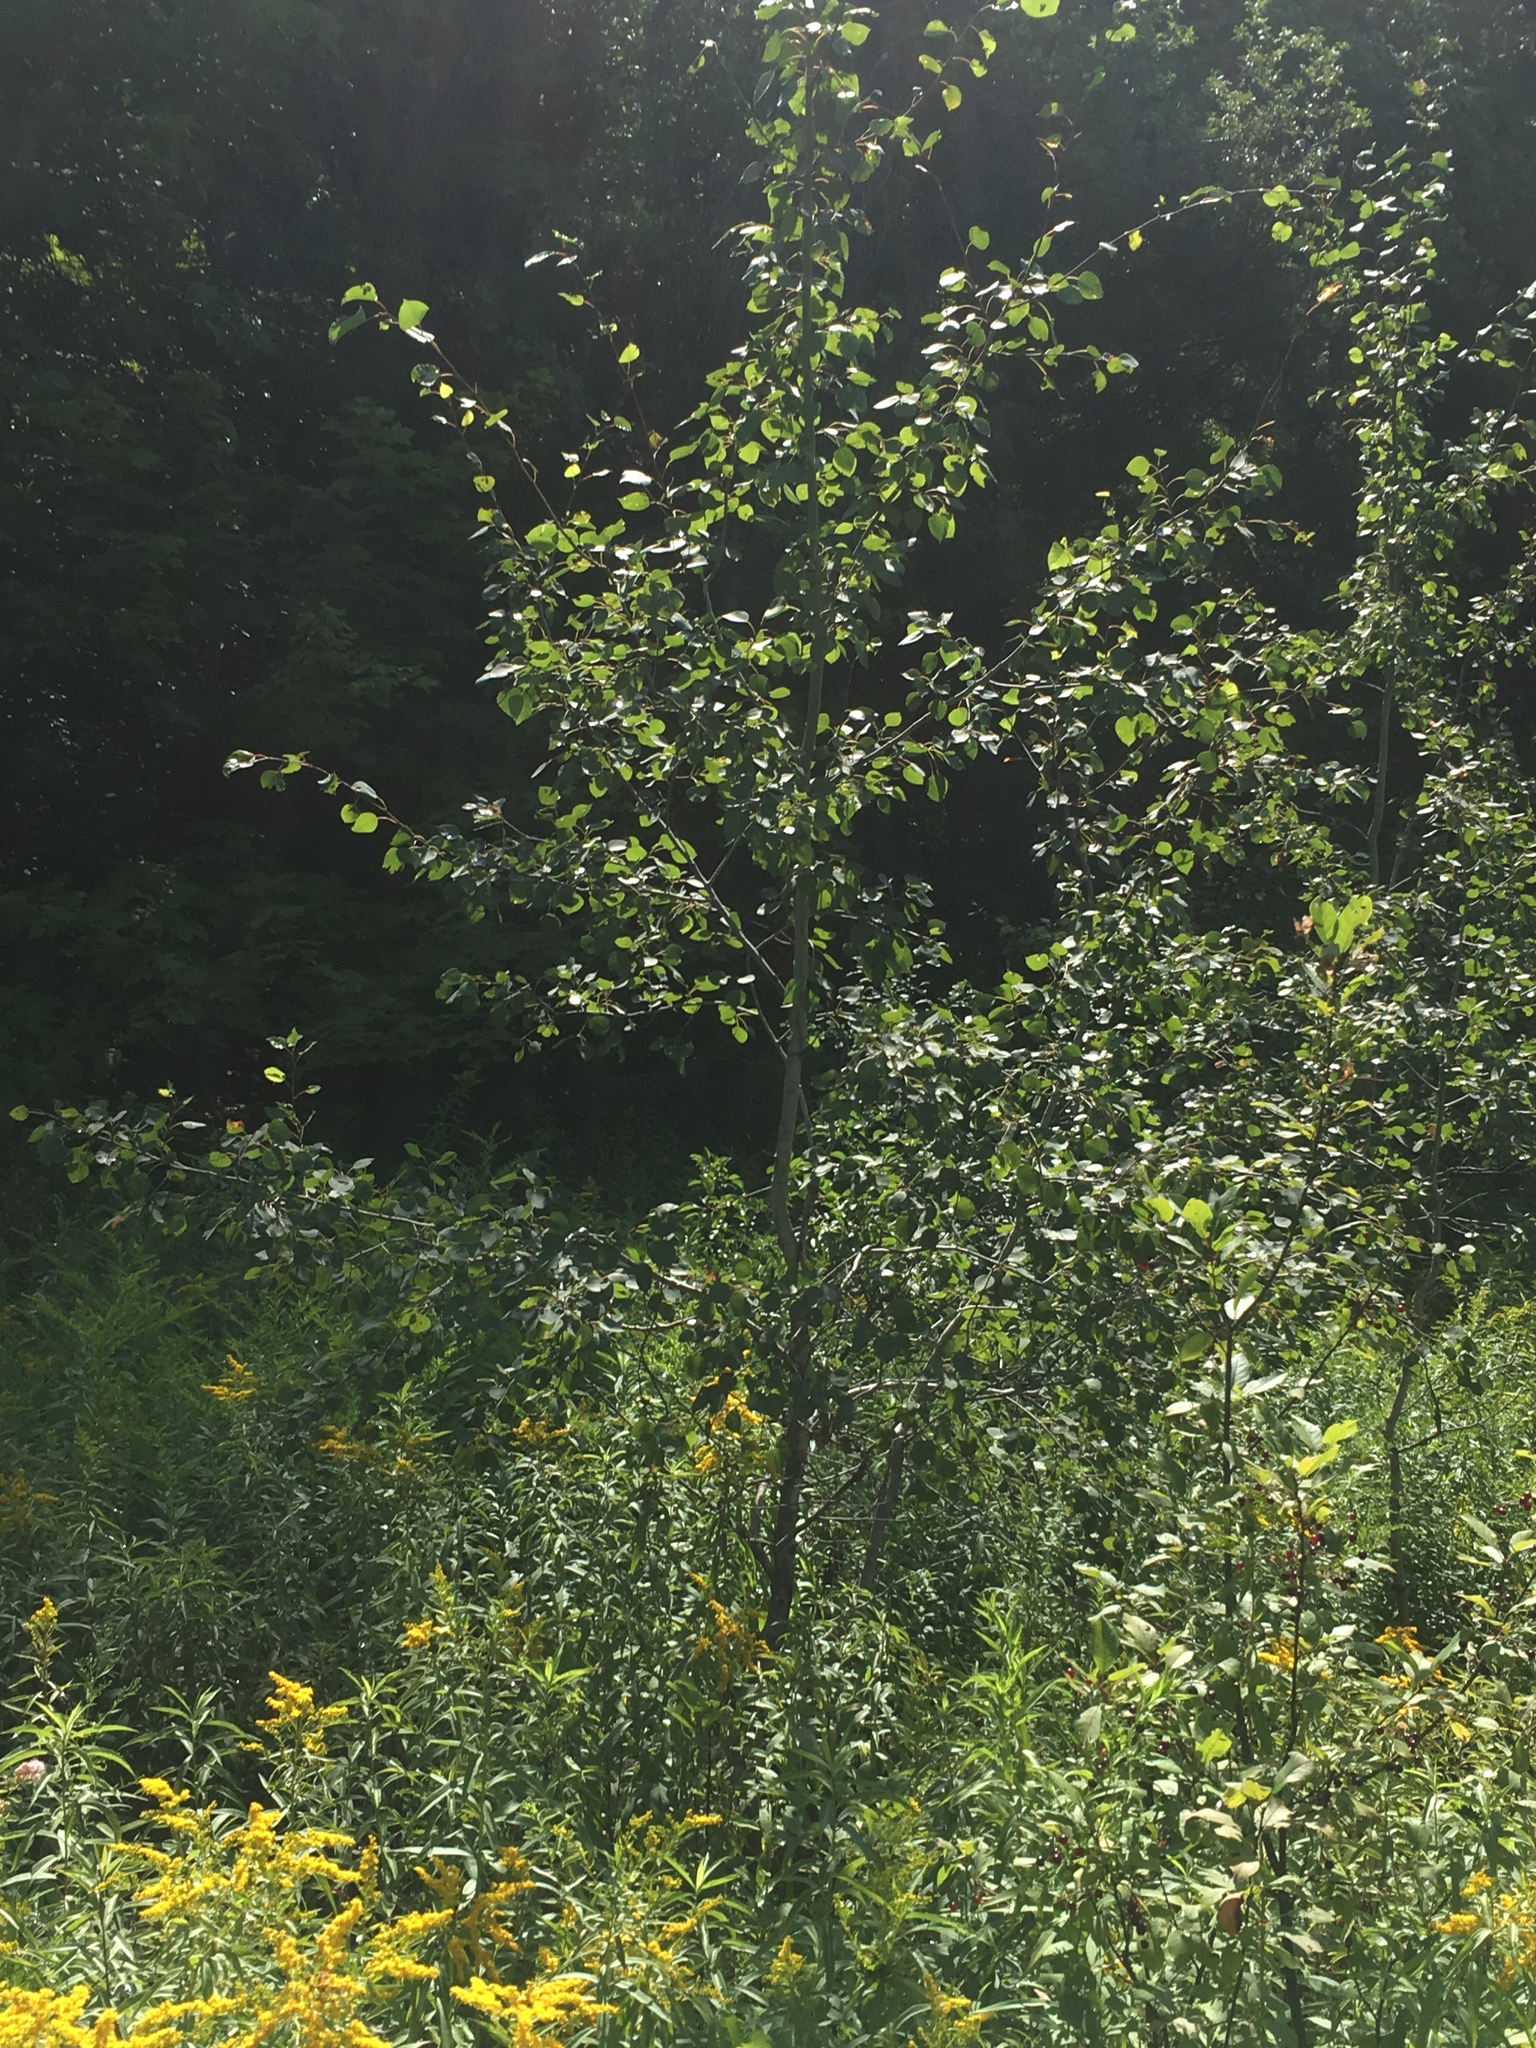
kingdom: Plantae
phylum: Tracheophyta
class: Magnoliopsida
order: Malpighiales
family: Salicaceae
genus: Populus
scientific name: Populus tremuloides
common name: Quaking aspen
